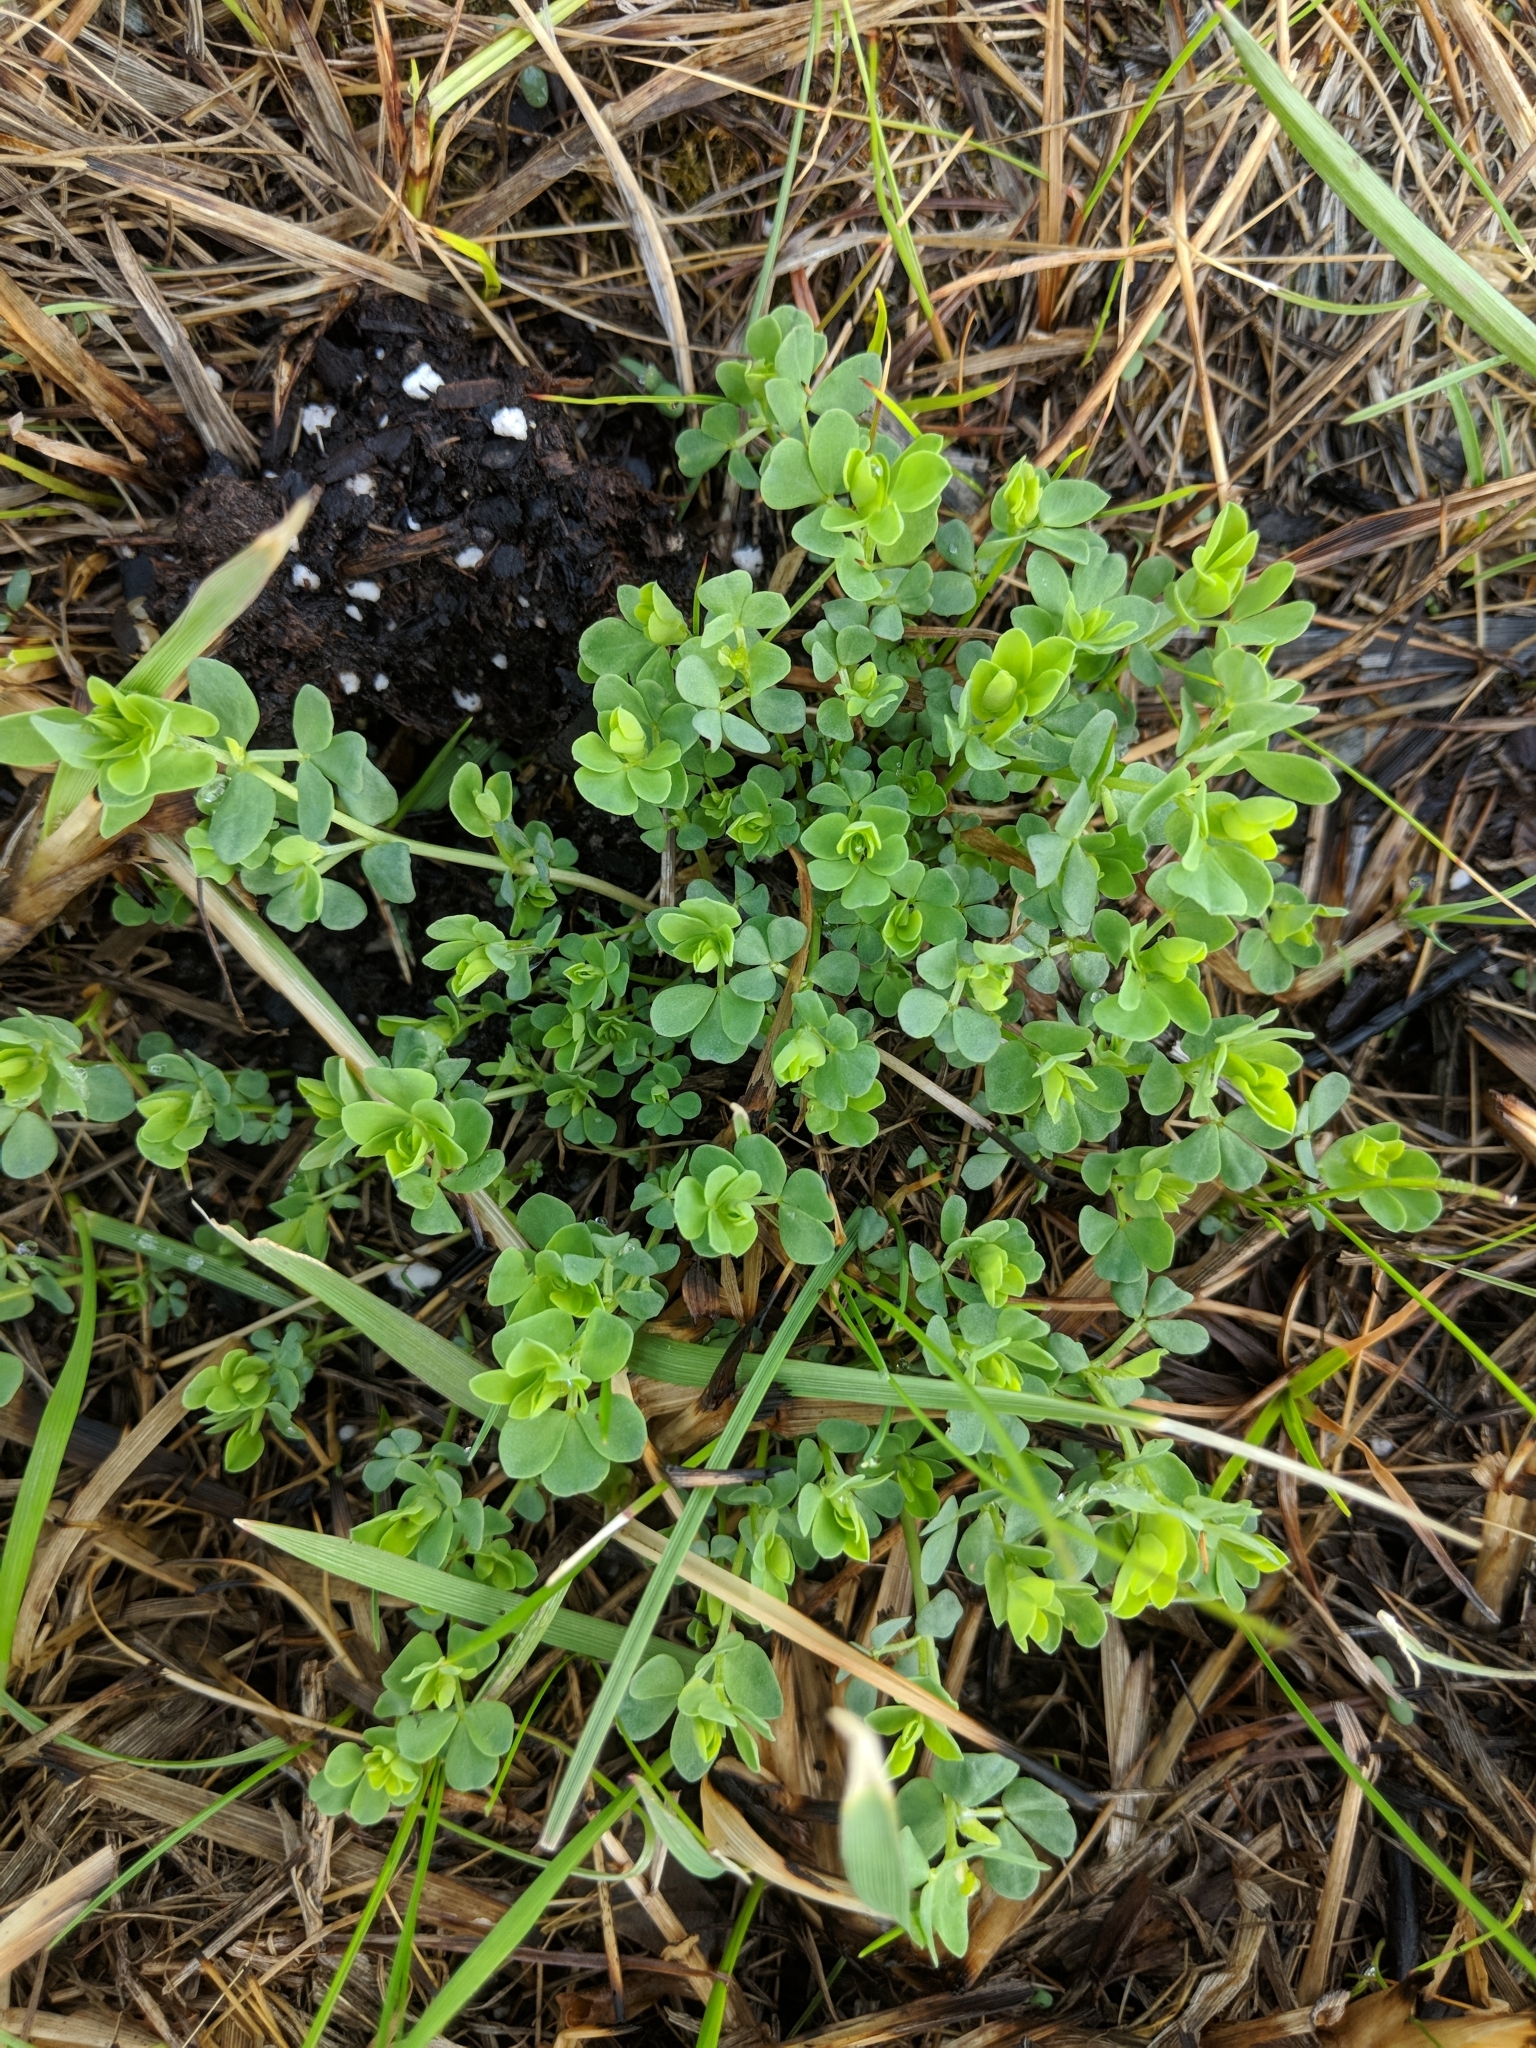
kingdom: Plantae
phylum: Tracheophyta
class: Magnoliopsida
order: Fabales
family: Fabaceae
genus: Lotus
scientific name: Lotus corniculatus
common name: Common bird's-foot-trefoil
